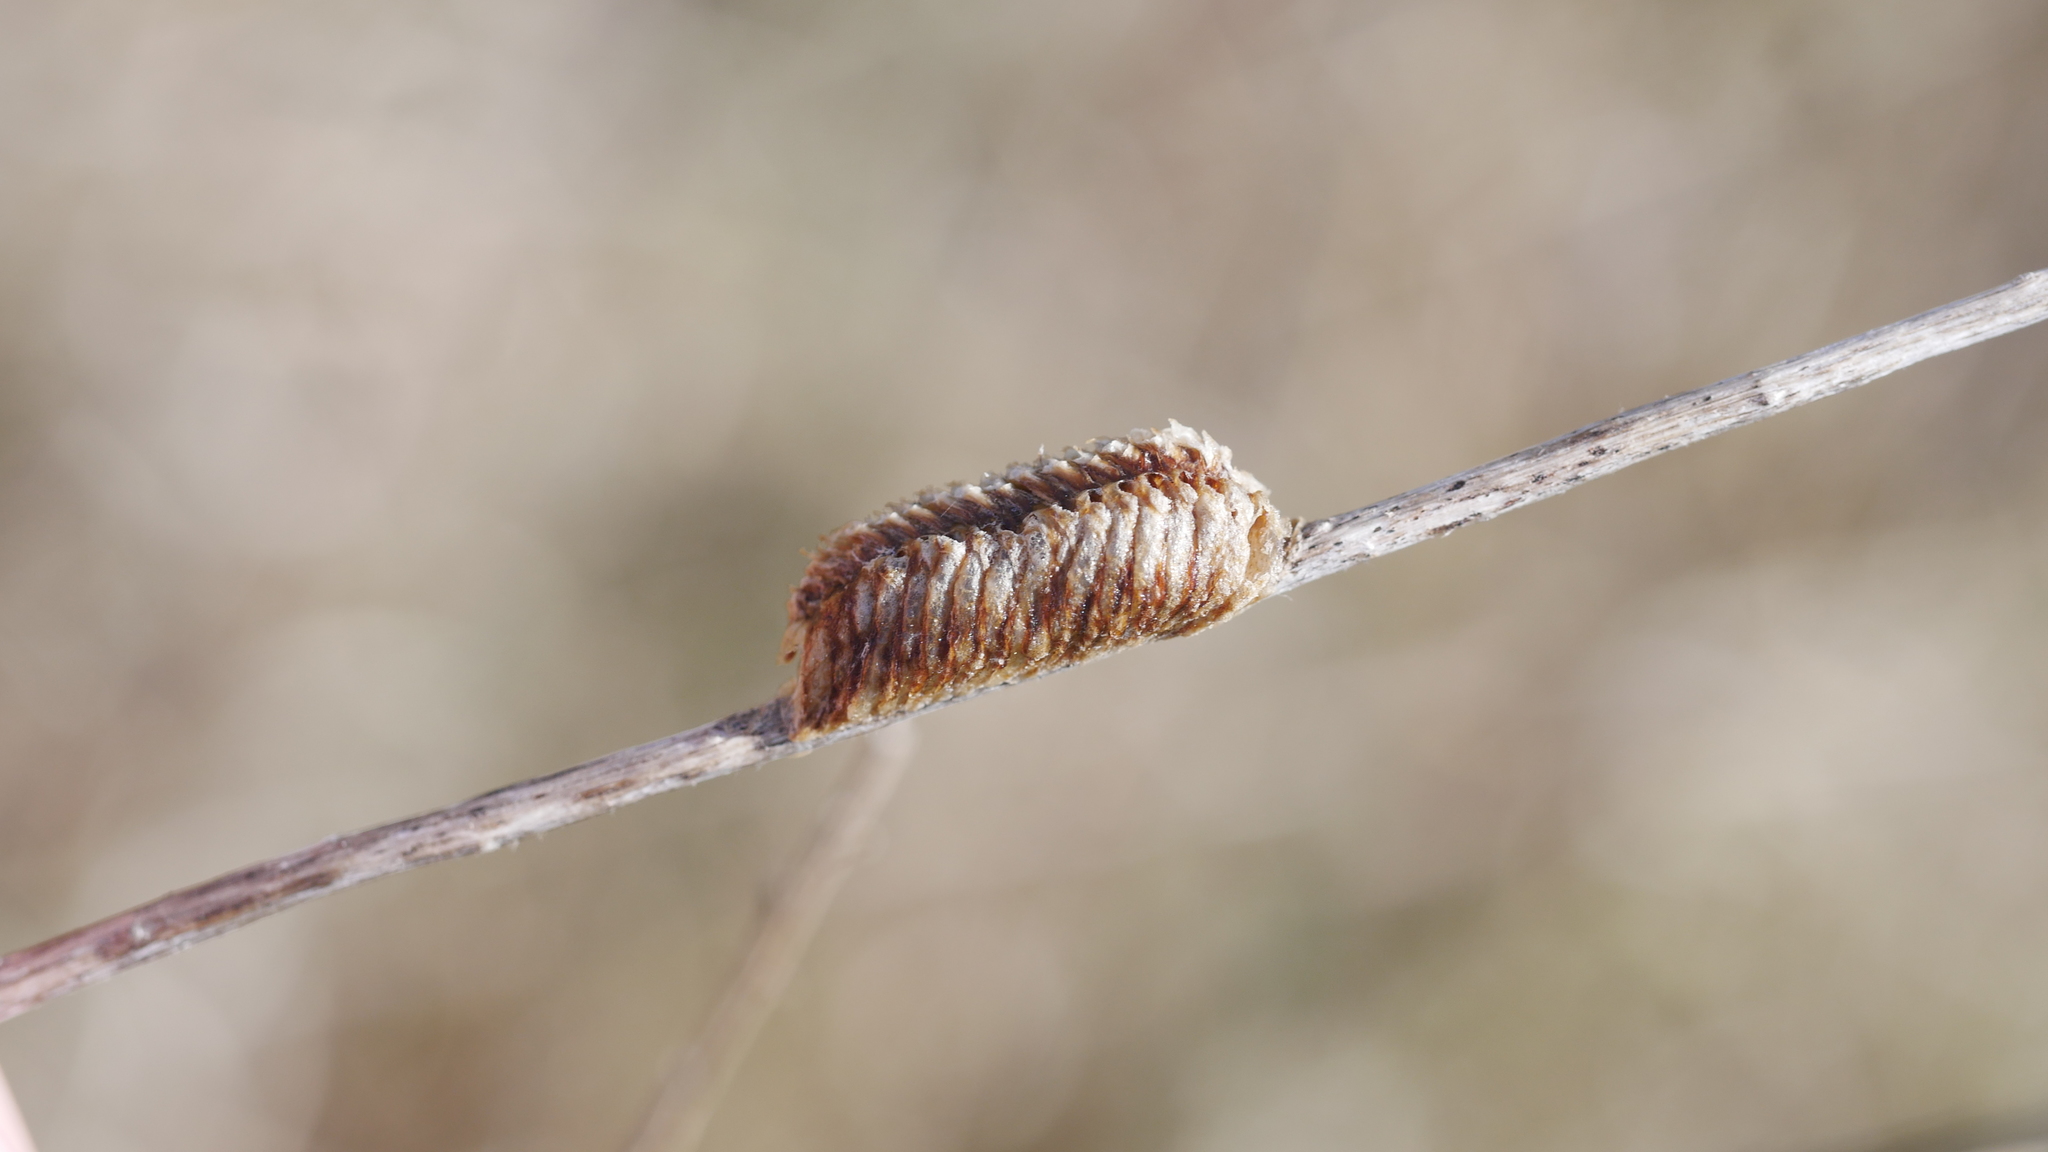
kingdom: Animalia
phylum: Arthropoda
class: Insecta
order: Mantodea
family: Mantidae
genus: Stagmomantis
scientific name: Stagmomantis carolina
